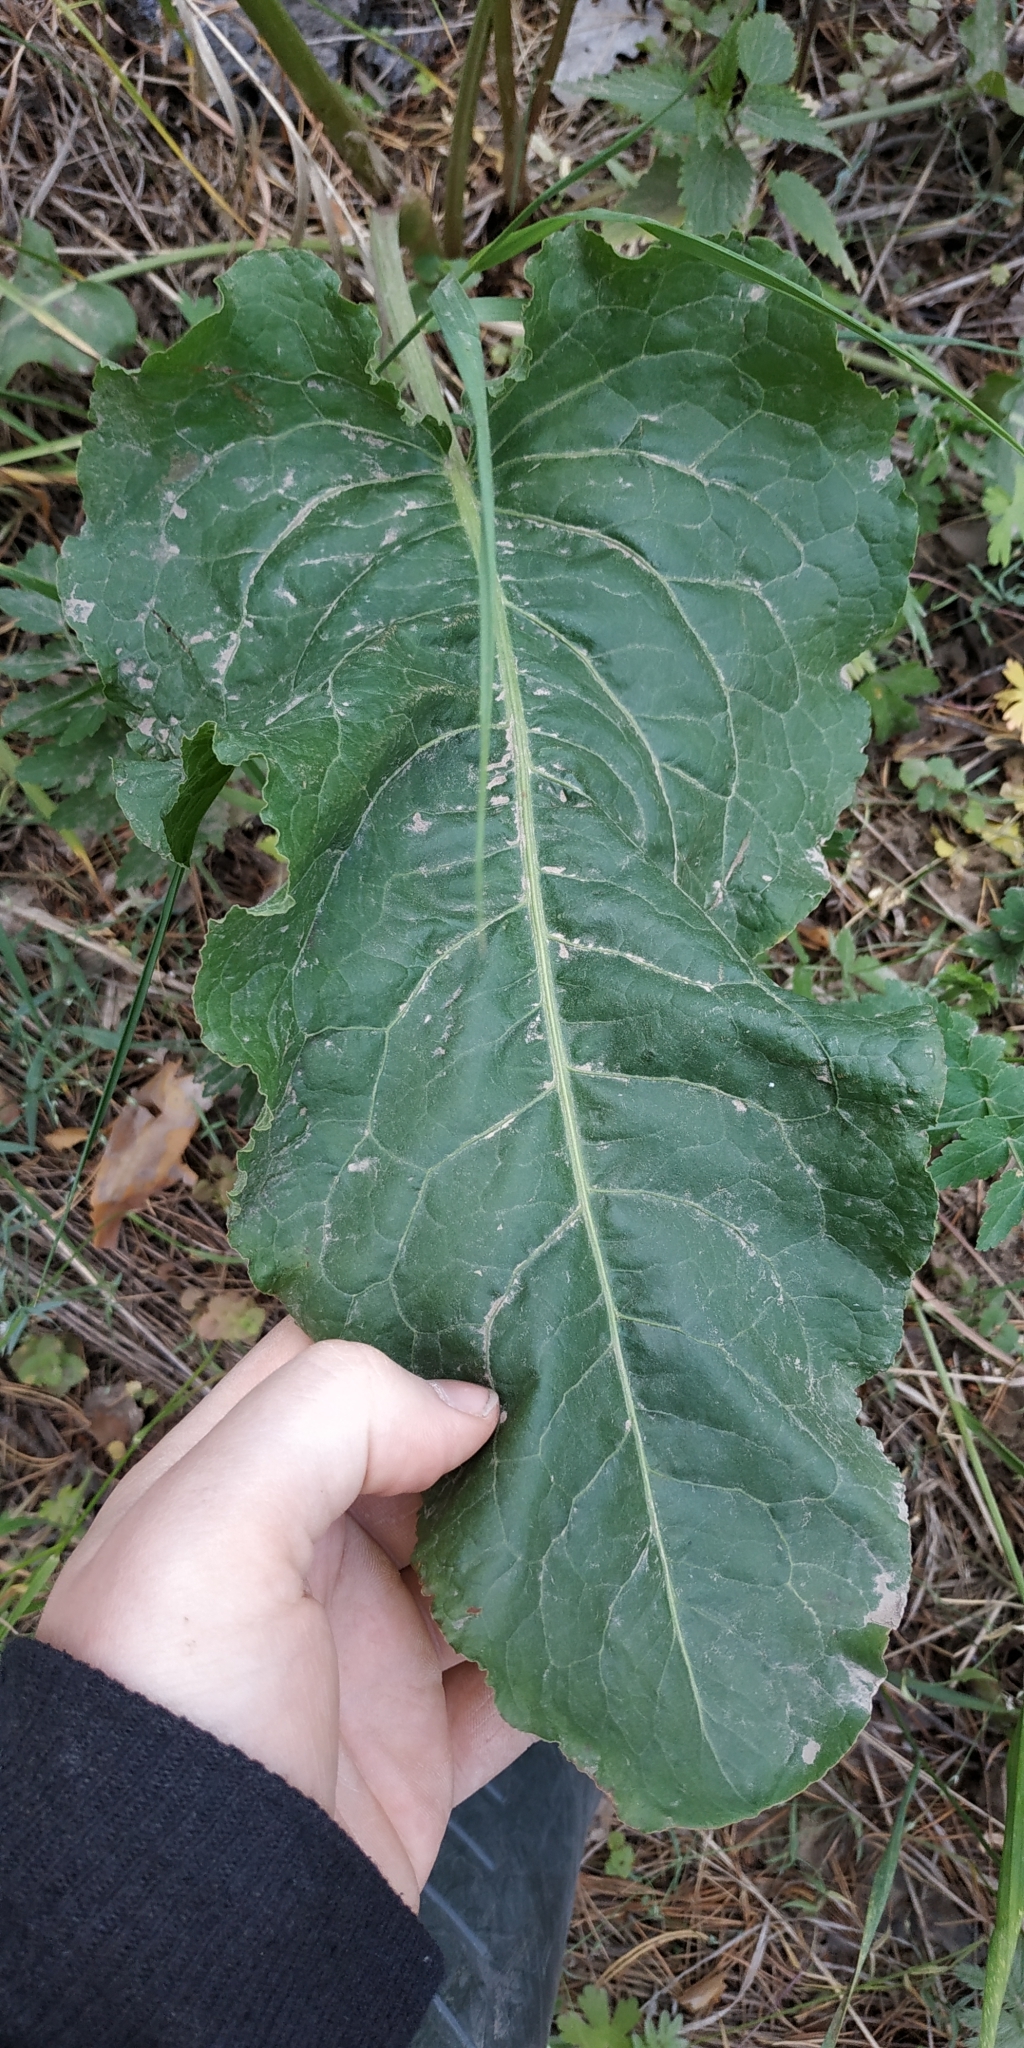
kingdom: Plantae
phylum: Tracheophyta
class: Magnoliopsida
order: Caryophyllales
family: Polygonaceae
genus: Rumex
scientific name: Rumex confertus
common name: Russian dock
